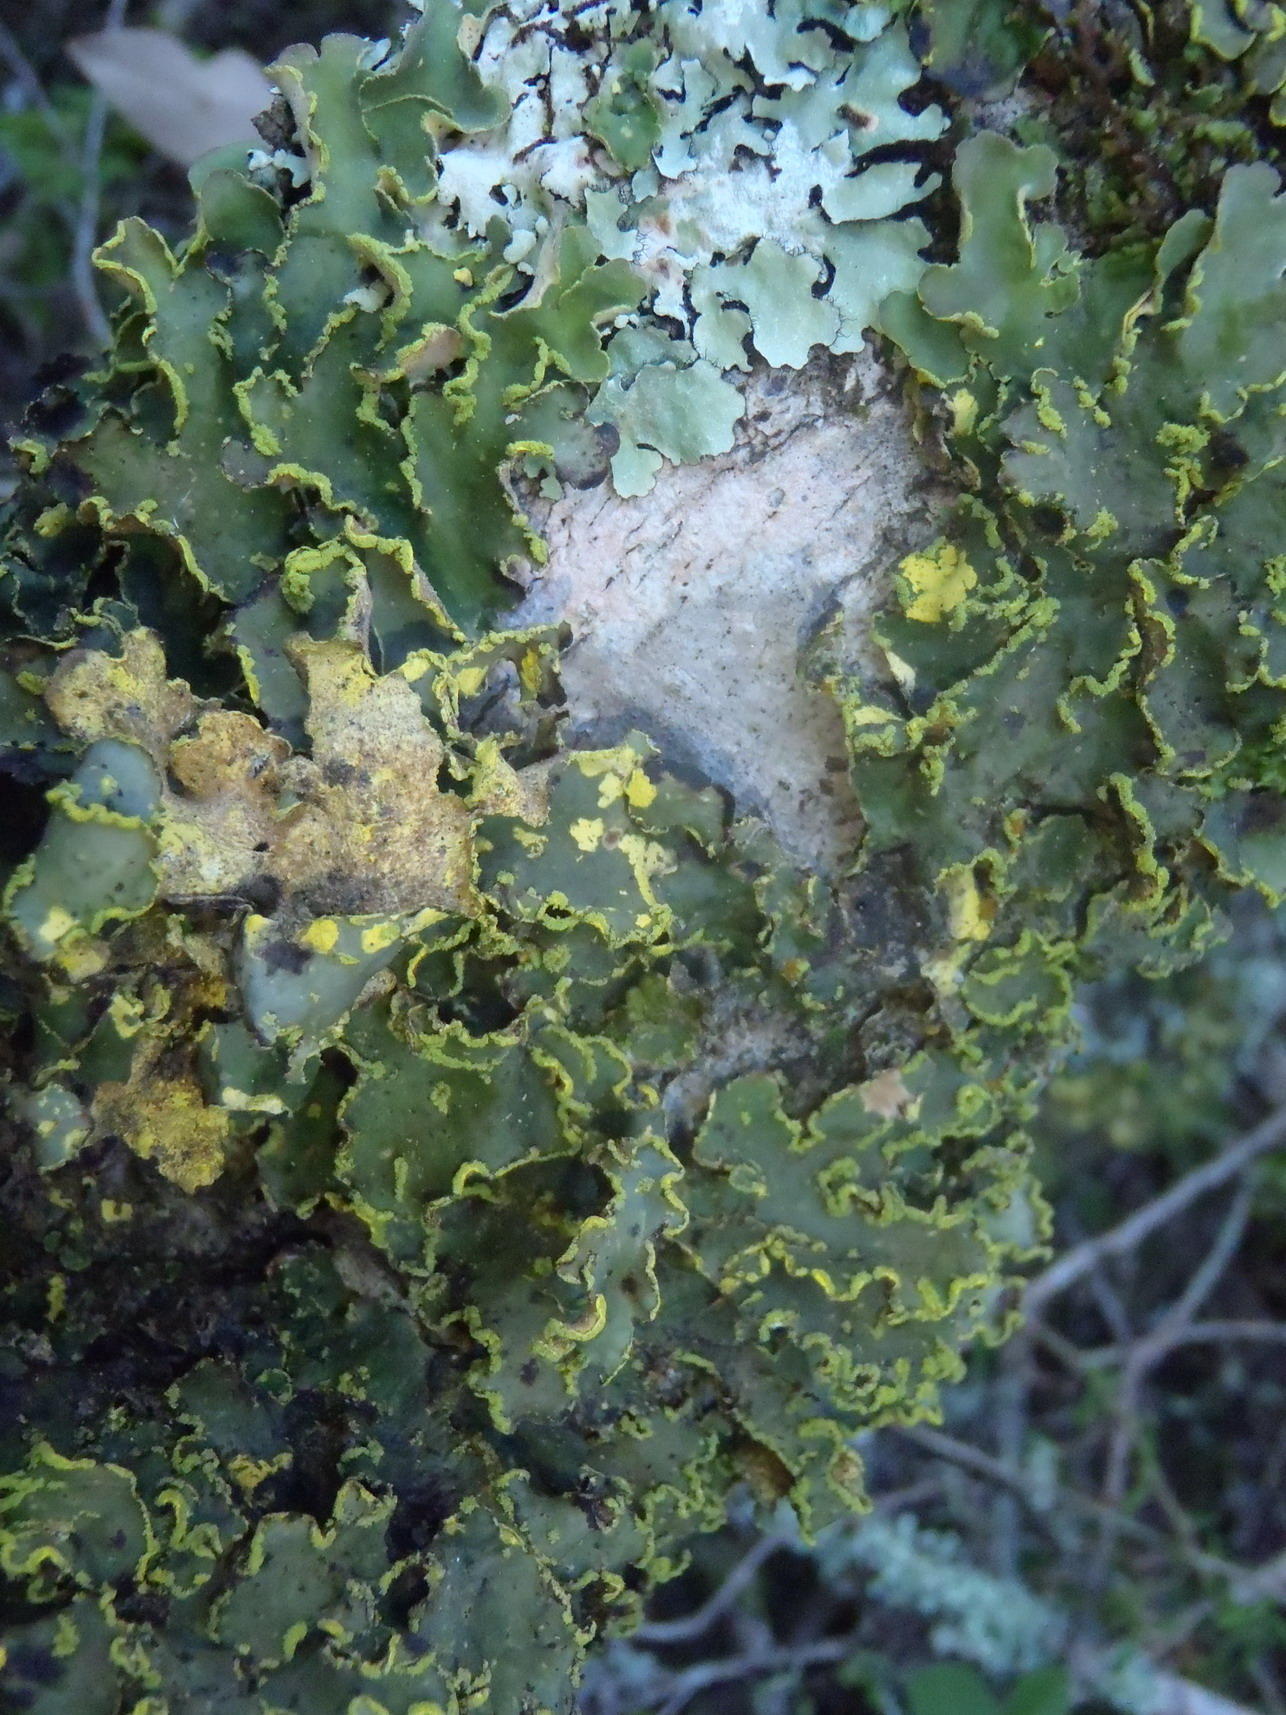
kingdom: Fungi
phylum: Ascomycota
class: Lecanoromycetes
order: Peltigerales
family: Lobariaceae
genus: Pseudocyphellaria
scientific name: Pseudocyphellaria aurata
